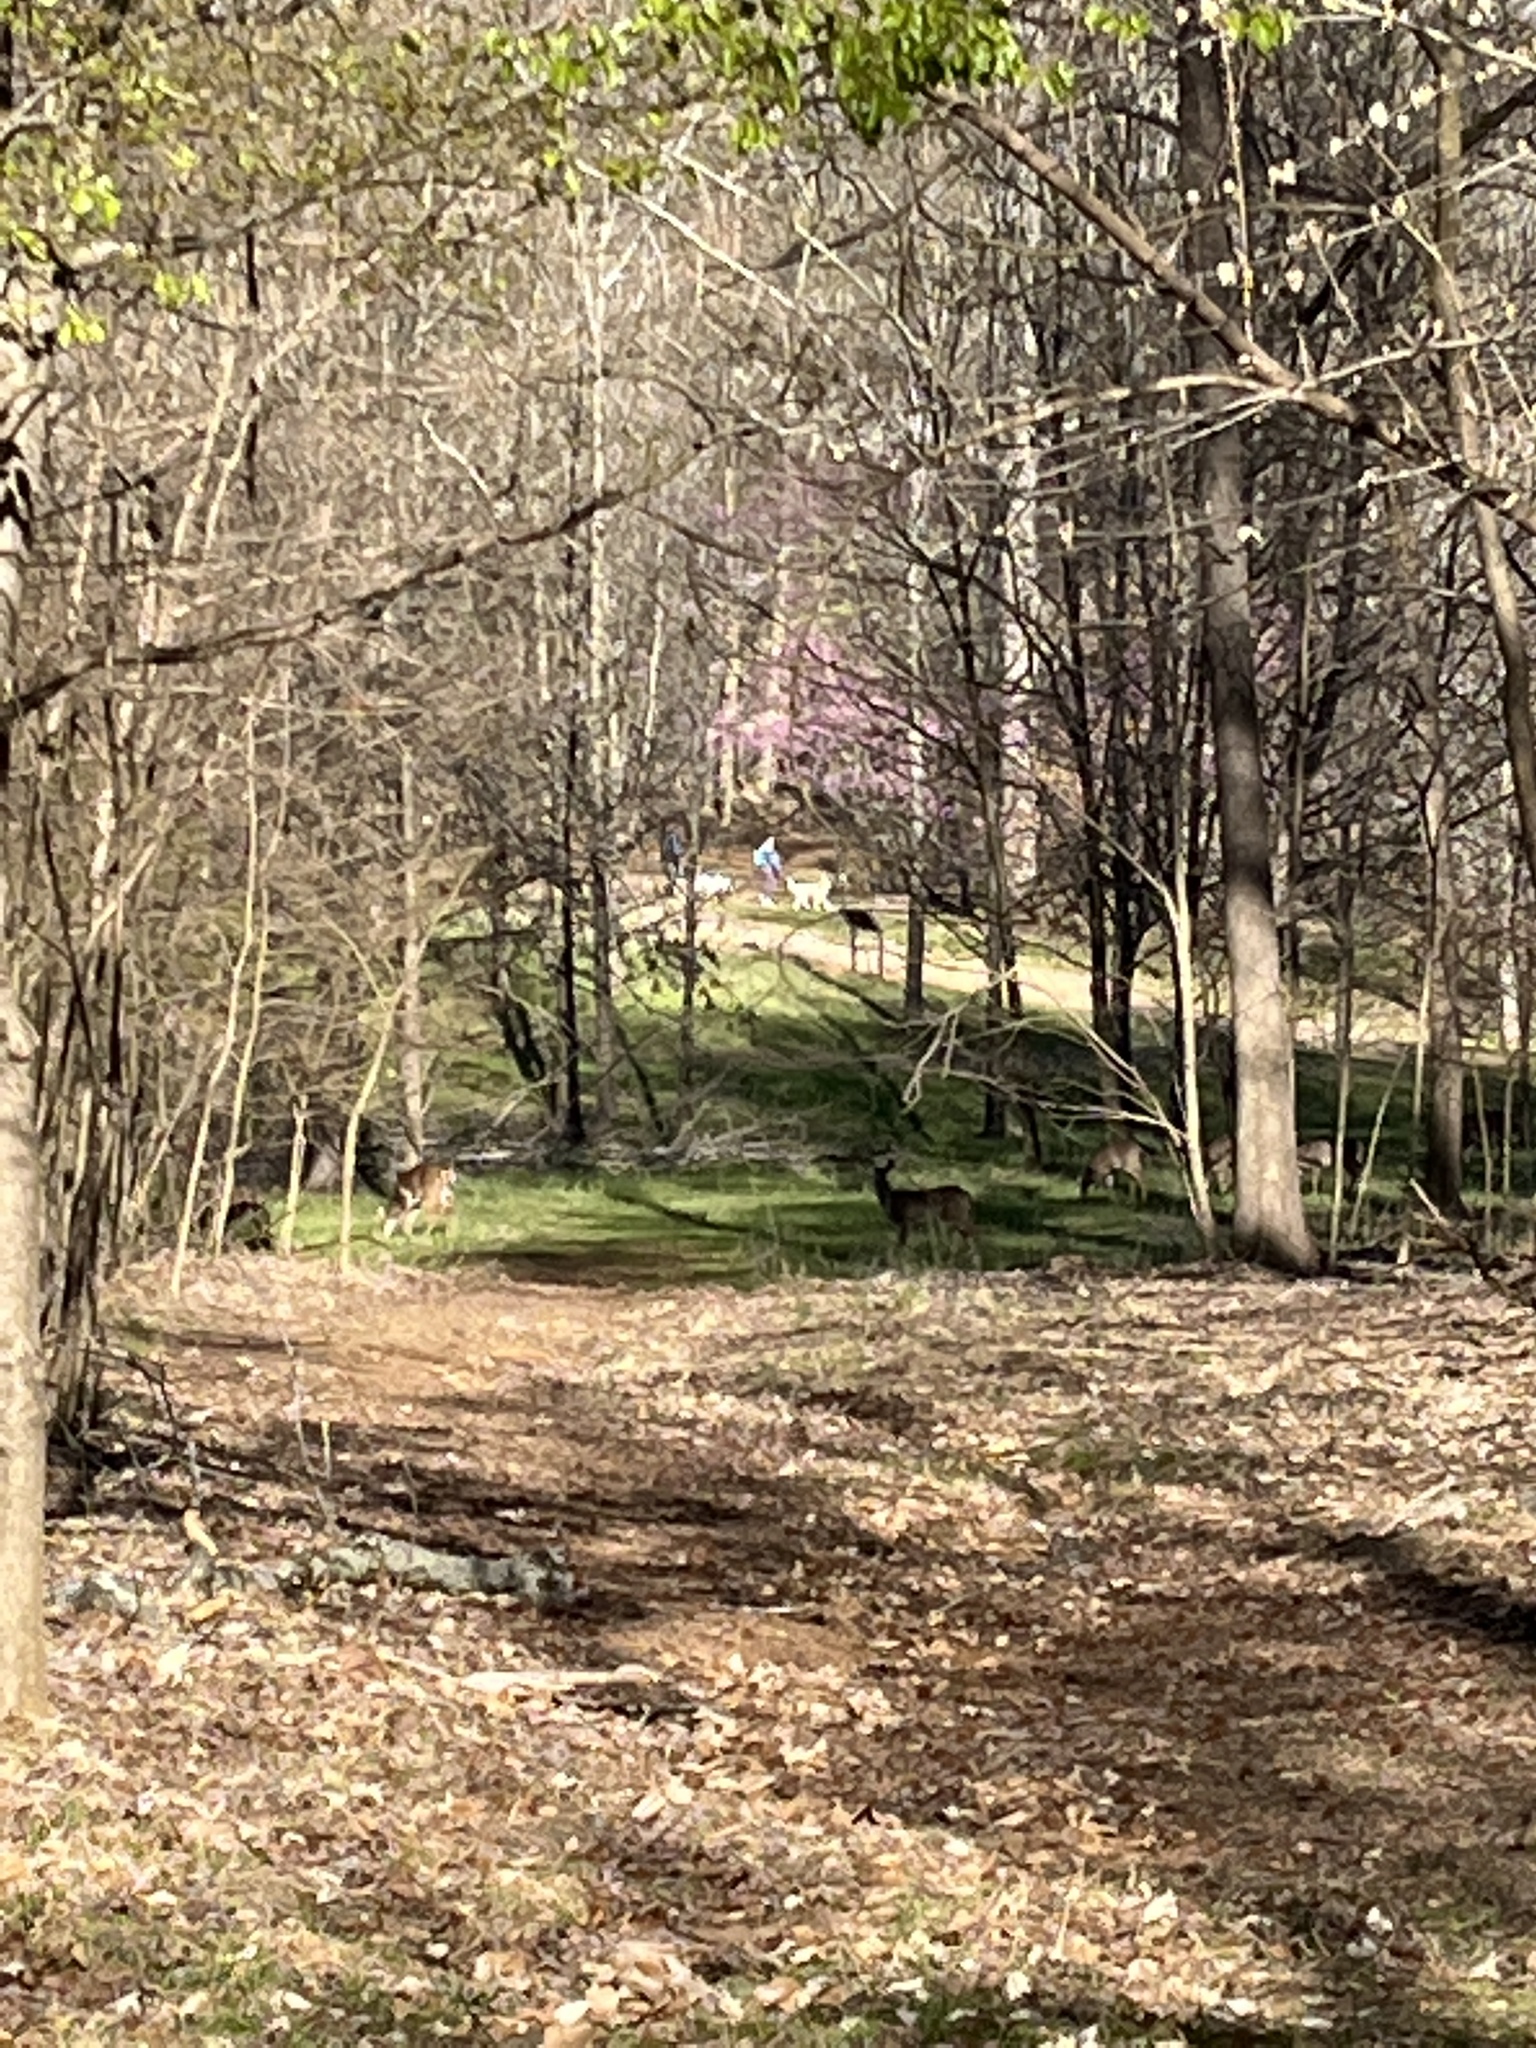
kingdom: Animalia
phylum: Chordata
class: Mammalia
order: Artiodactyla
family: Cervidae
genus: Odocoileus
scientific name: Odocoileus virginianus
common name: White-tailed deer
